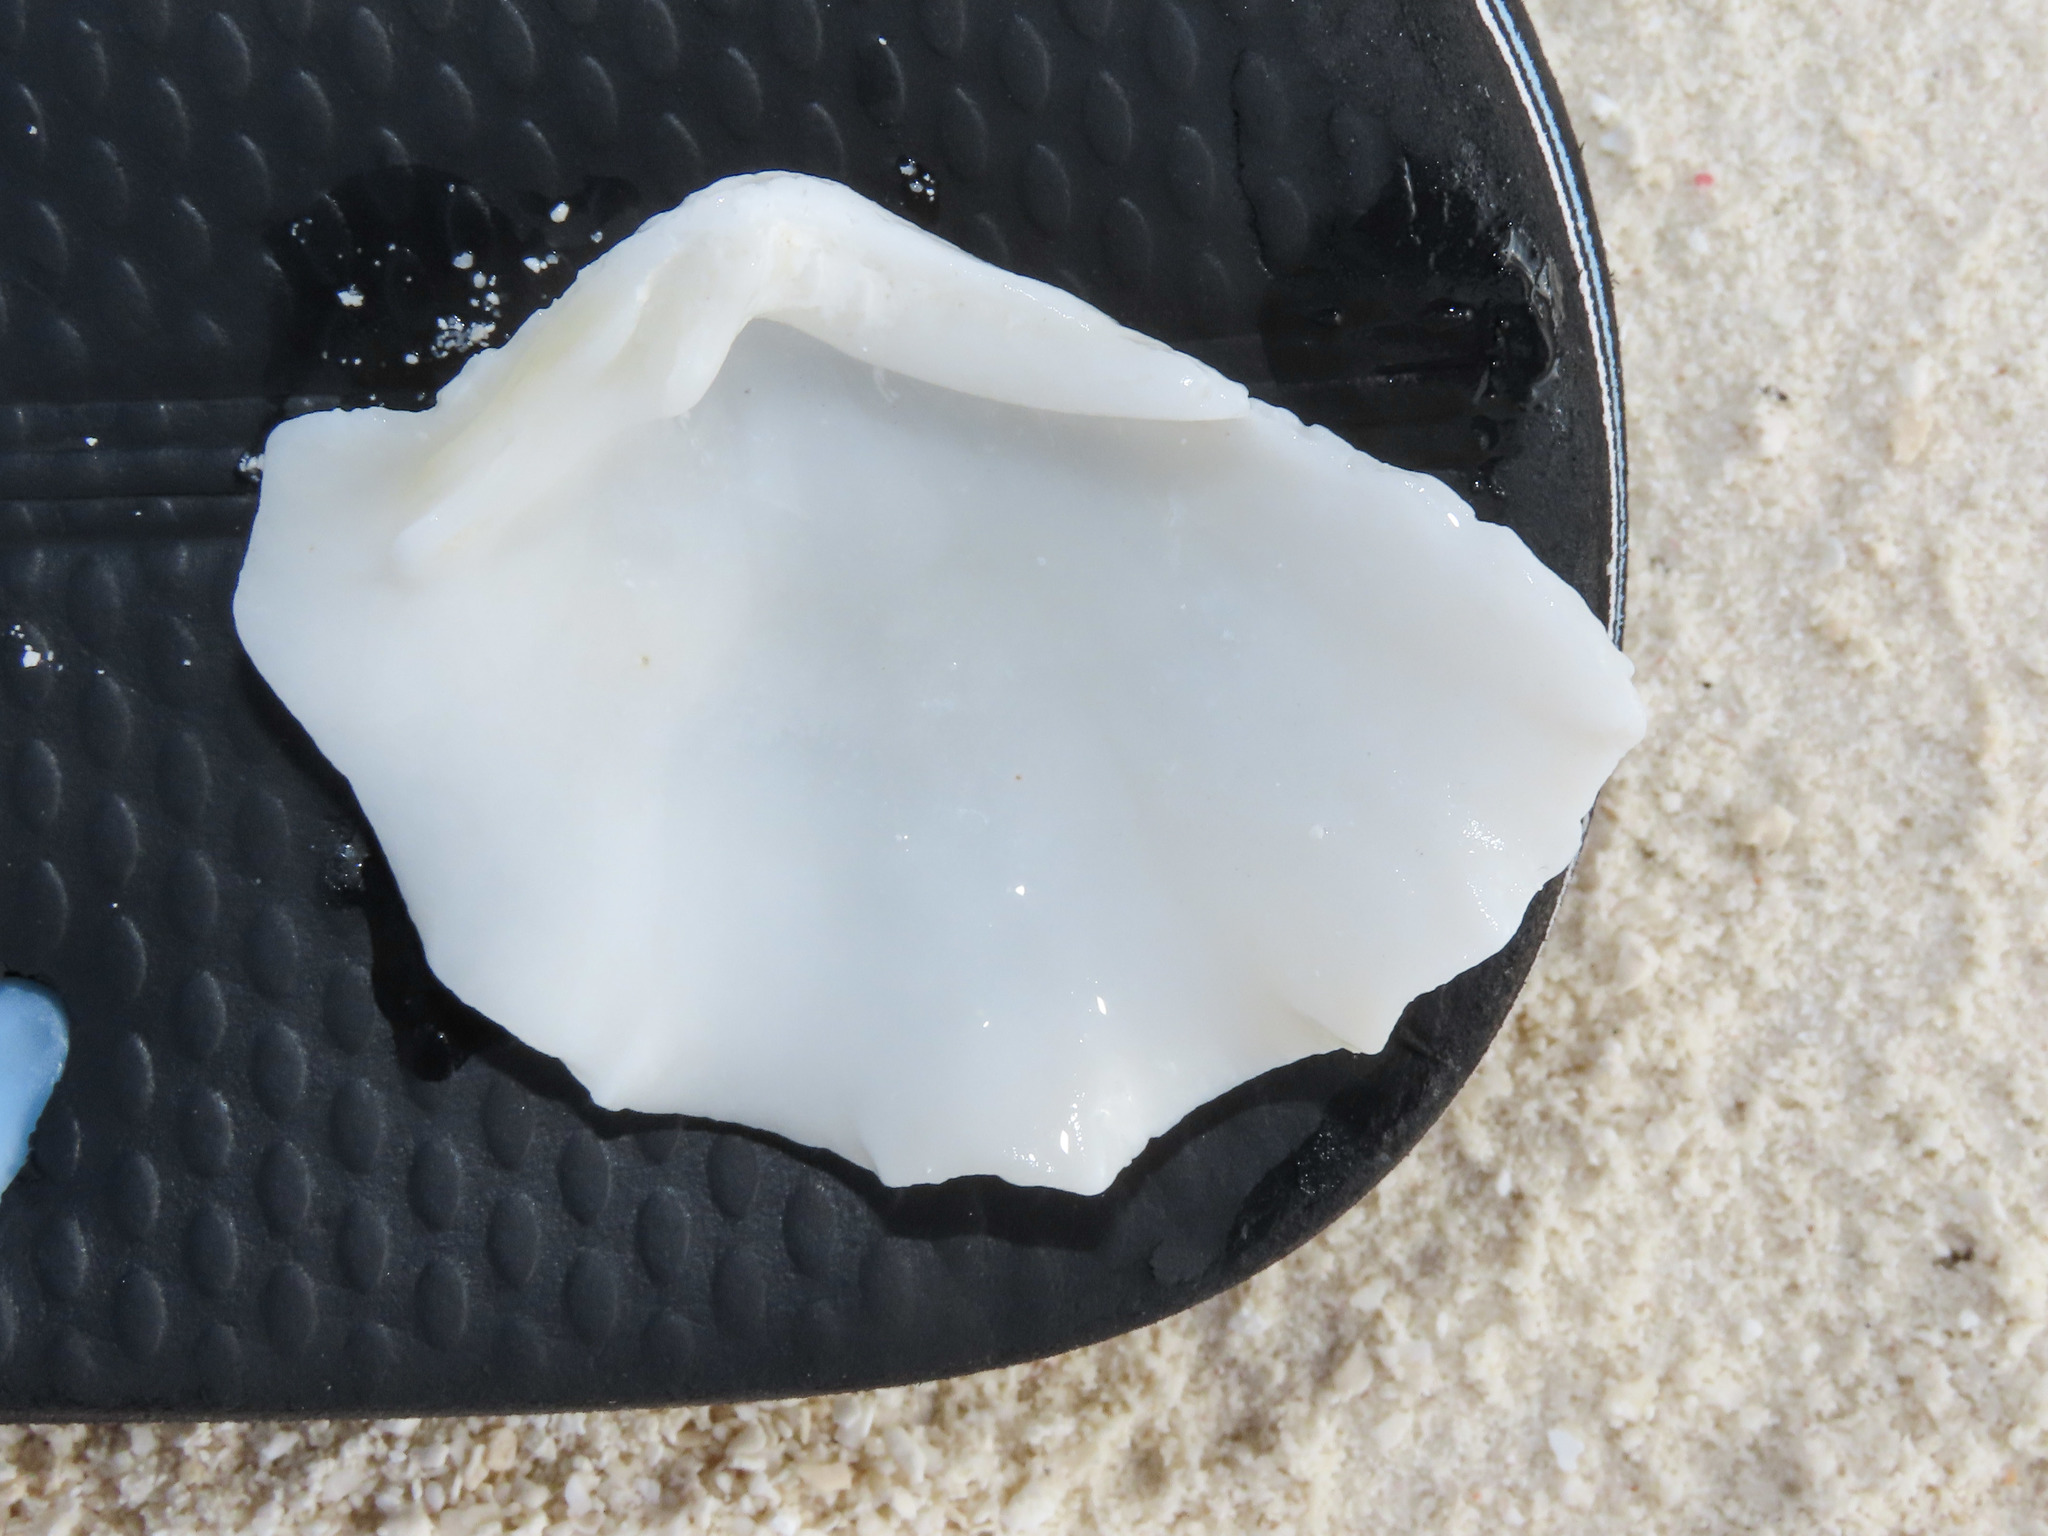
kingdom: Animalia
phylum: Mollusca
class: Bivalvia
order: Cardiida
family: Cardiidae
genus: Tridacna
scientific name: Tridacna maxima
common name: Small giant clam
